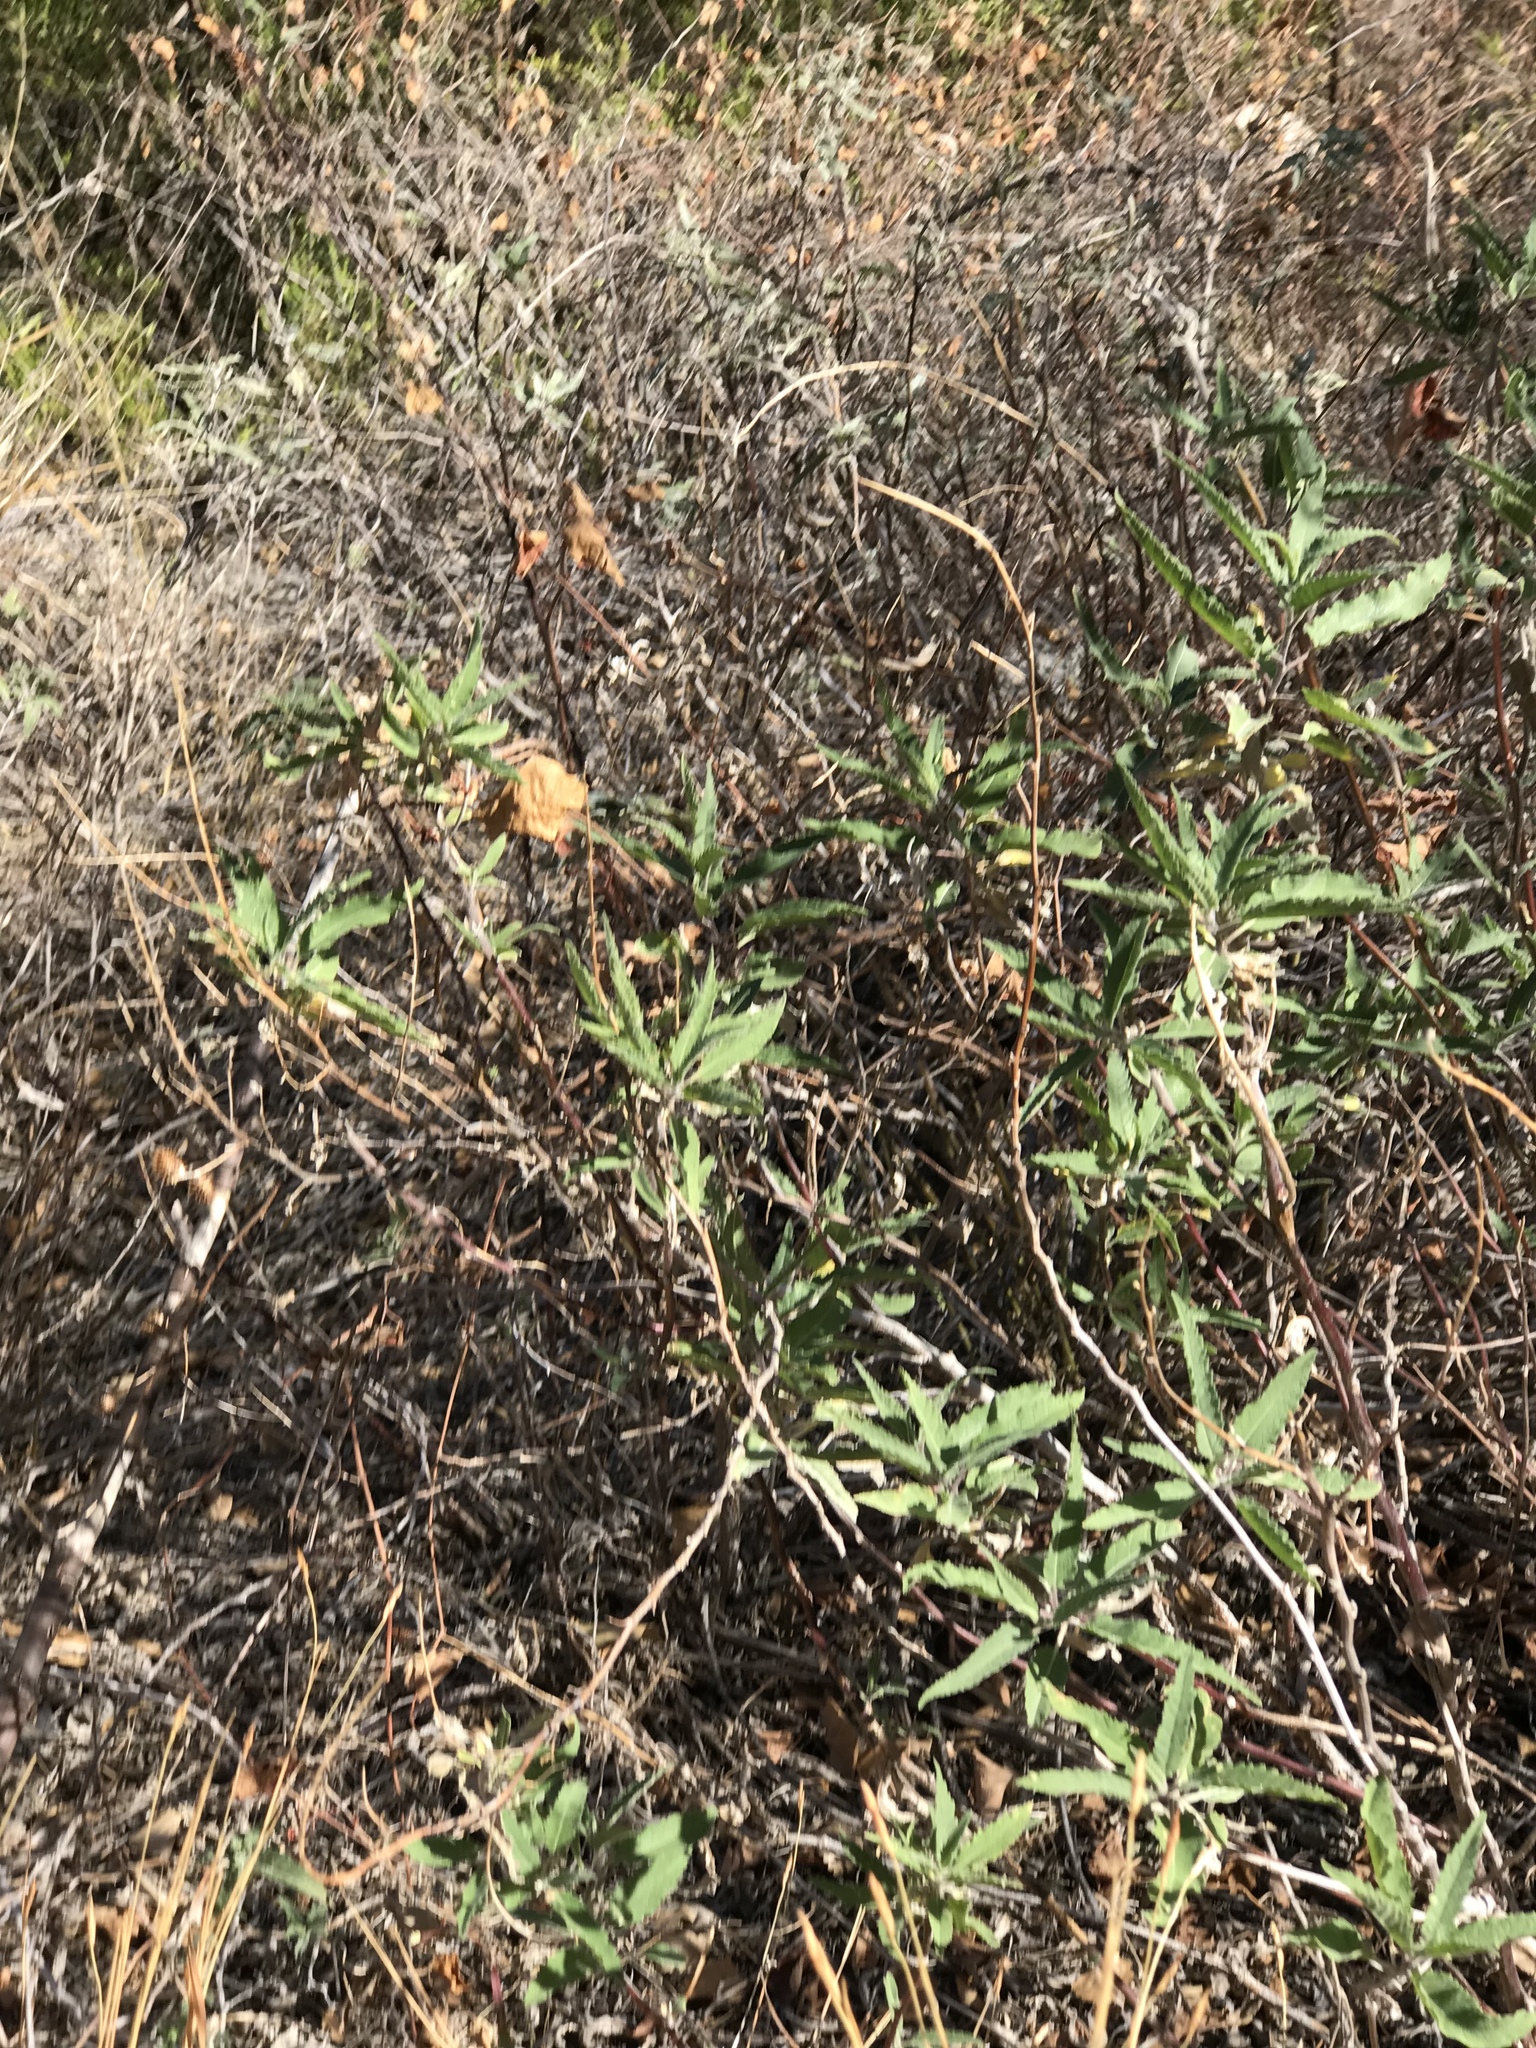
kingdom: Plantae
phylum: Tracheophyta
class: Magnoliopsida
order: Asterales
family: Asteraceae
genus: Ambrosia
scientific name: Ambrosia ambrosioides
